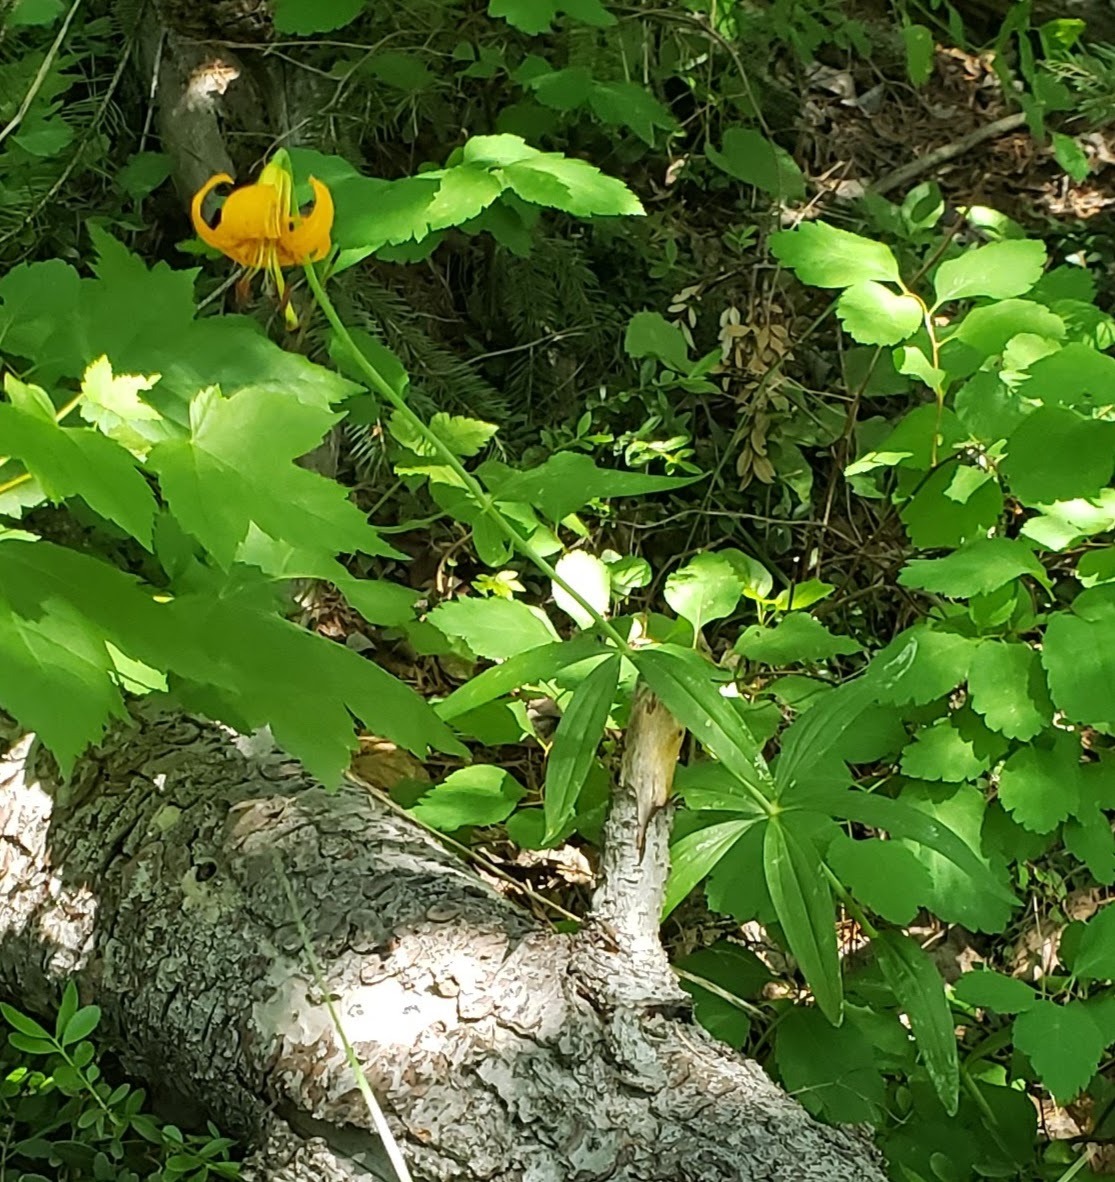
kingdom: Plantae
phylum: Tracheophyta
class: Liliopsida
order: Liliales
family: Liliaceae
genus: Lilium
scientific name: Lilium columbianum
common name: Columbia lily
